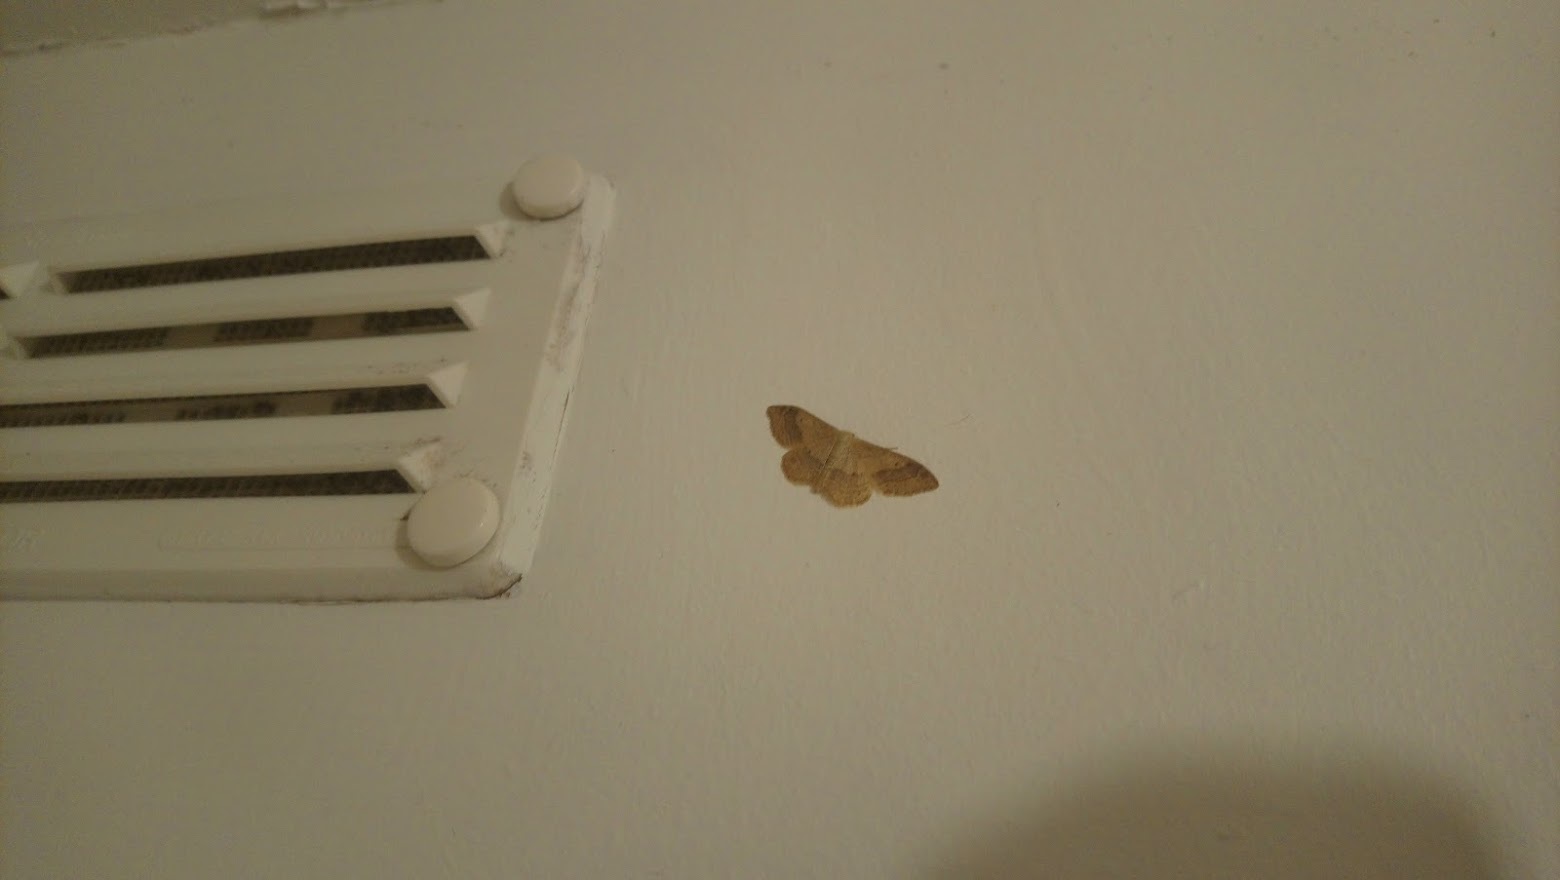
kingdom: Animalia
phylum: Arthropoda
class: Insecta
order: Lepidoptera
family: Geometridae
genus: Idaea
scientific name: Idaea aversata
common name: Riband wave
